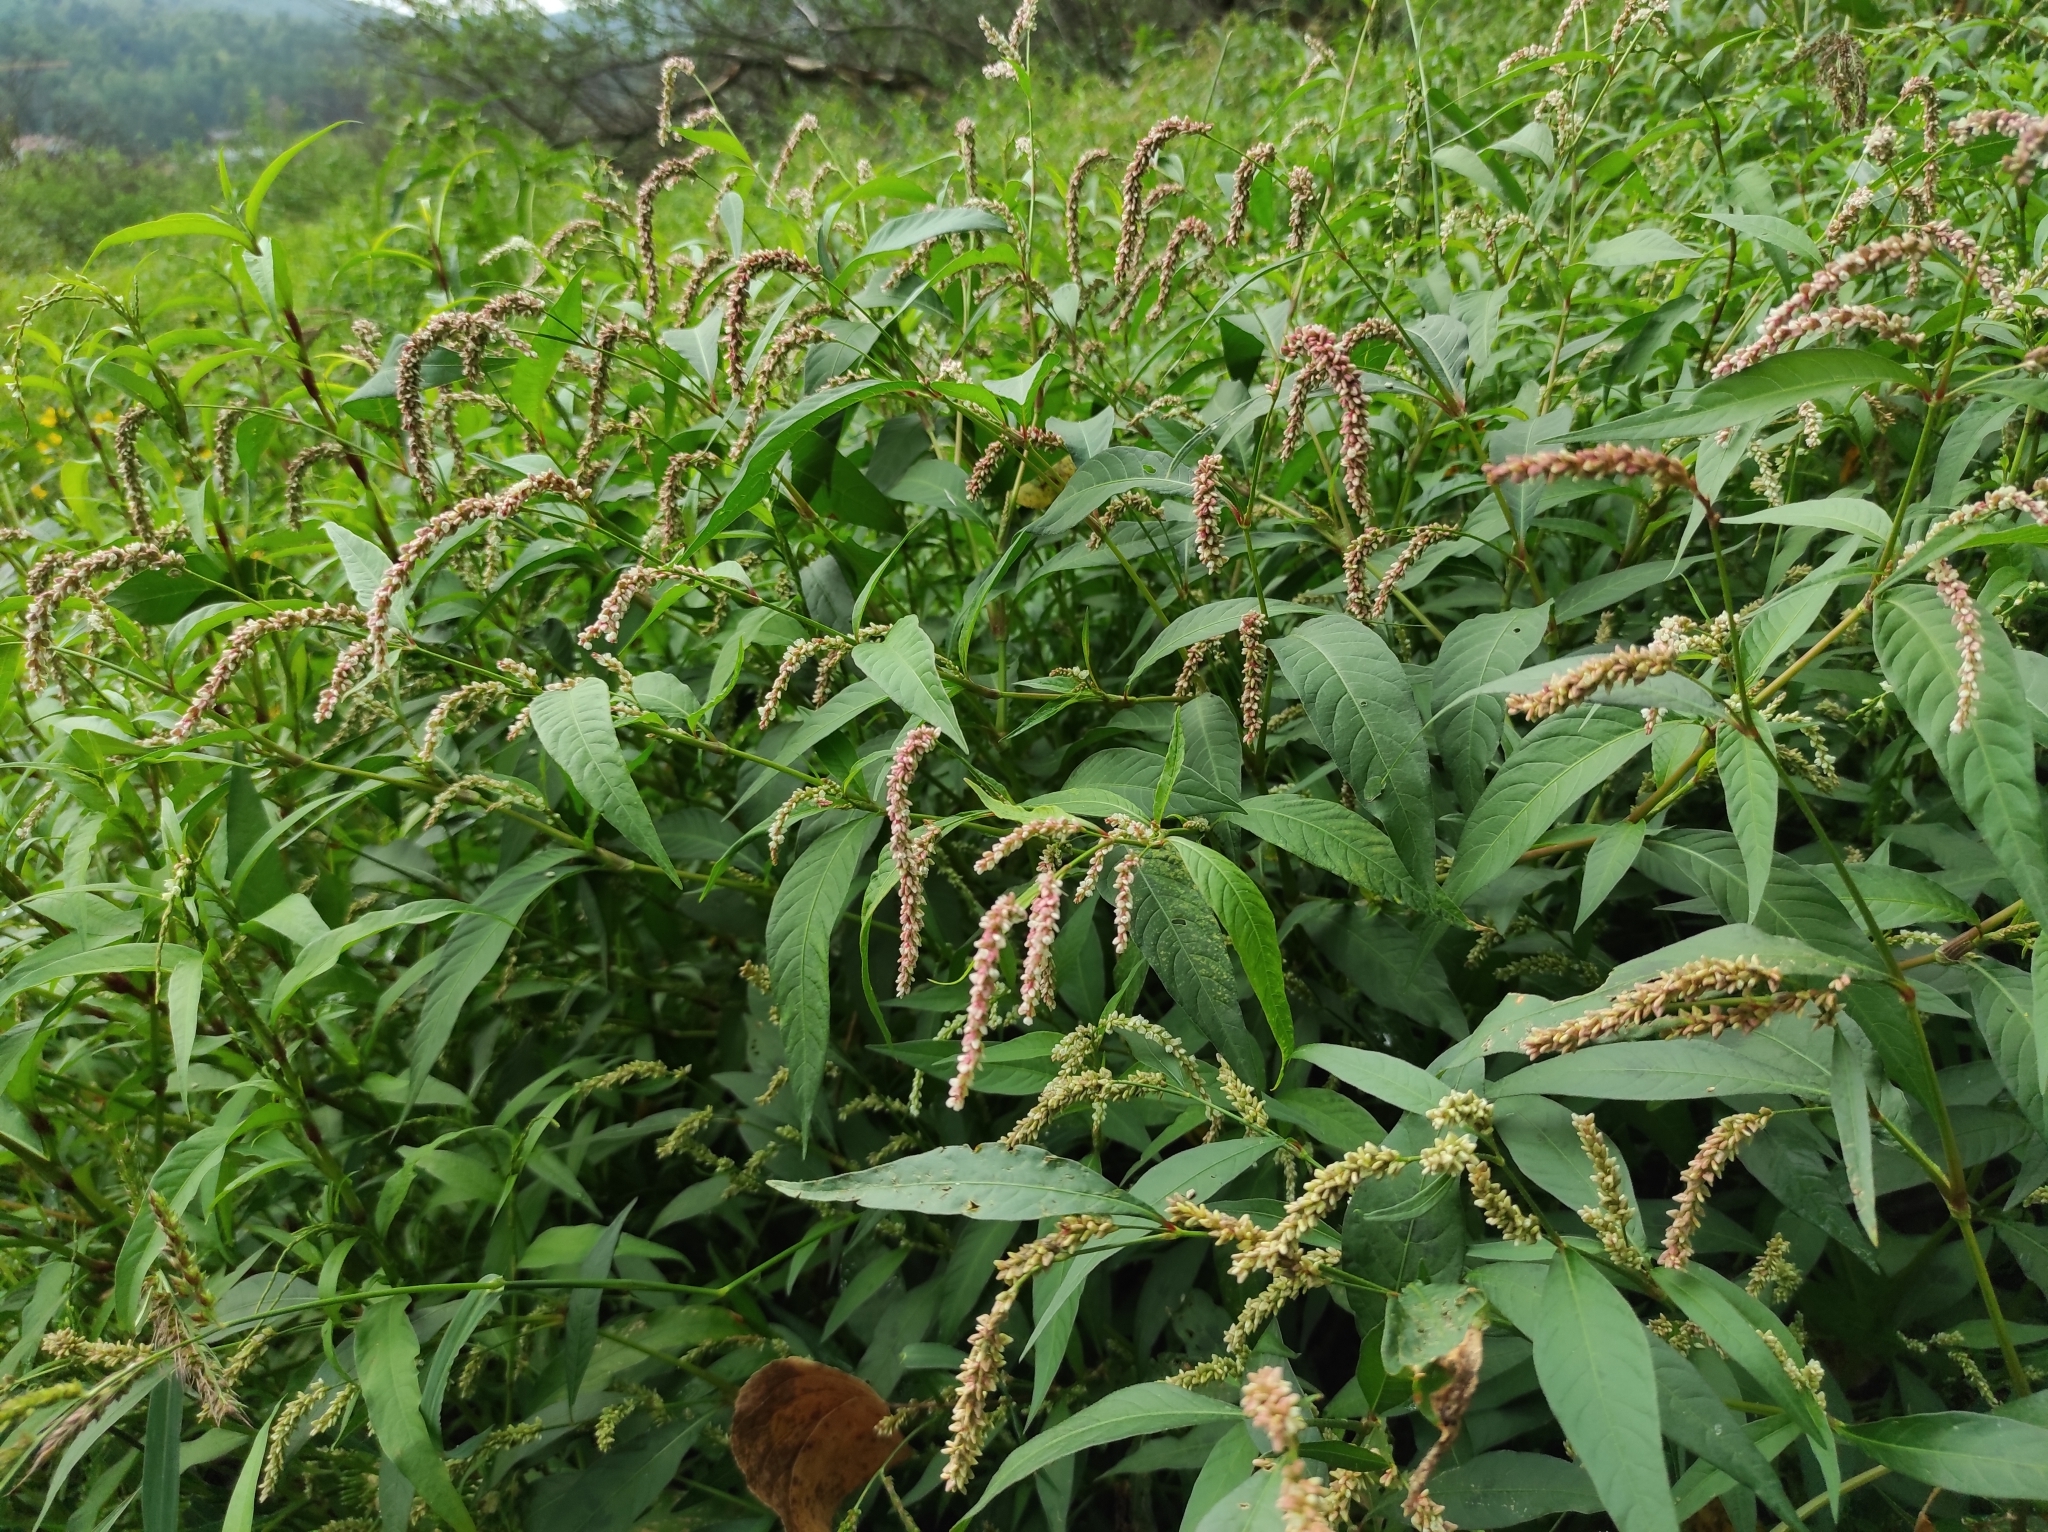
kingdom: Plantae
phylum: Tracheophyta
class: Magnoliopsida
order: Caryophyllales
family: Polygonaceae
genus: Persicaria
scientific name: Persicaria lapathifolia
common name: Curlytop knotweed
